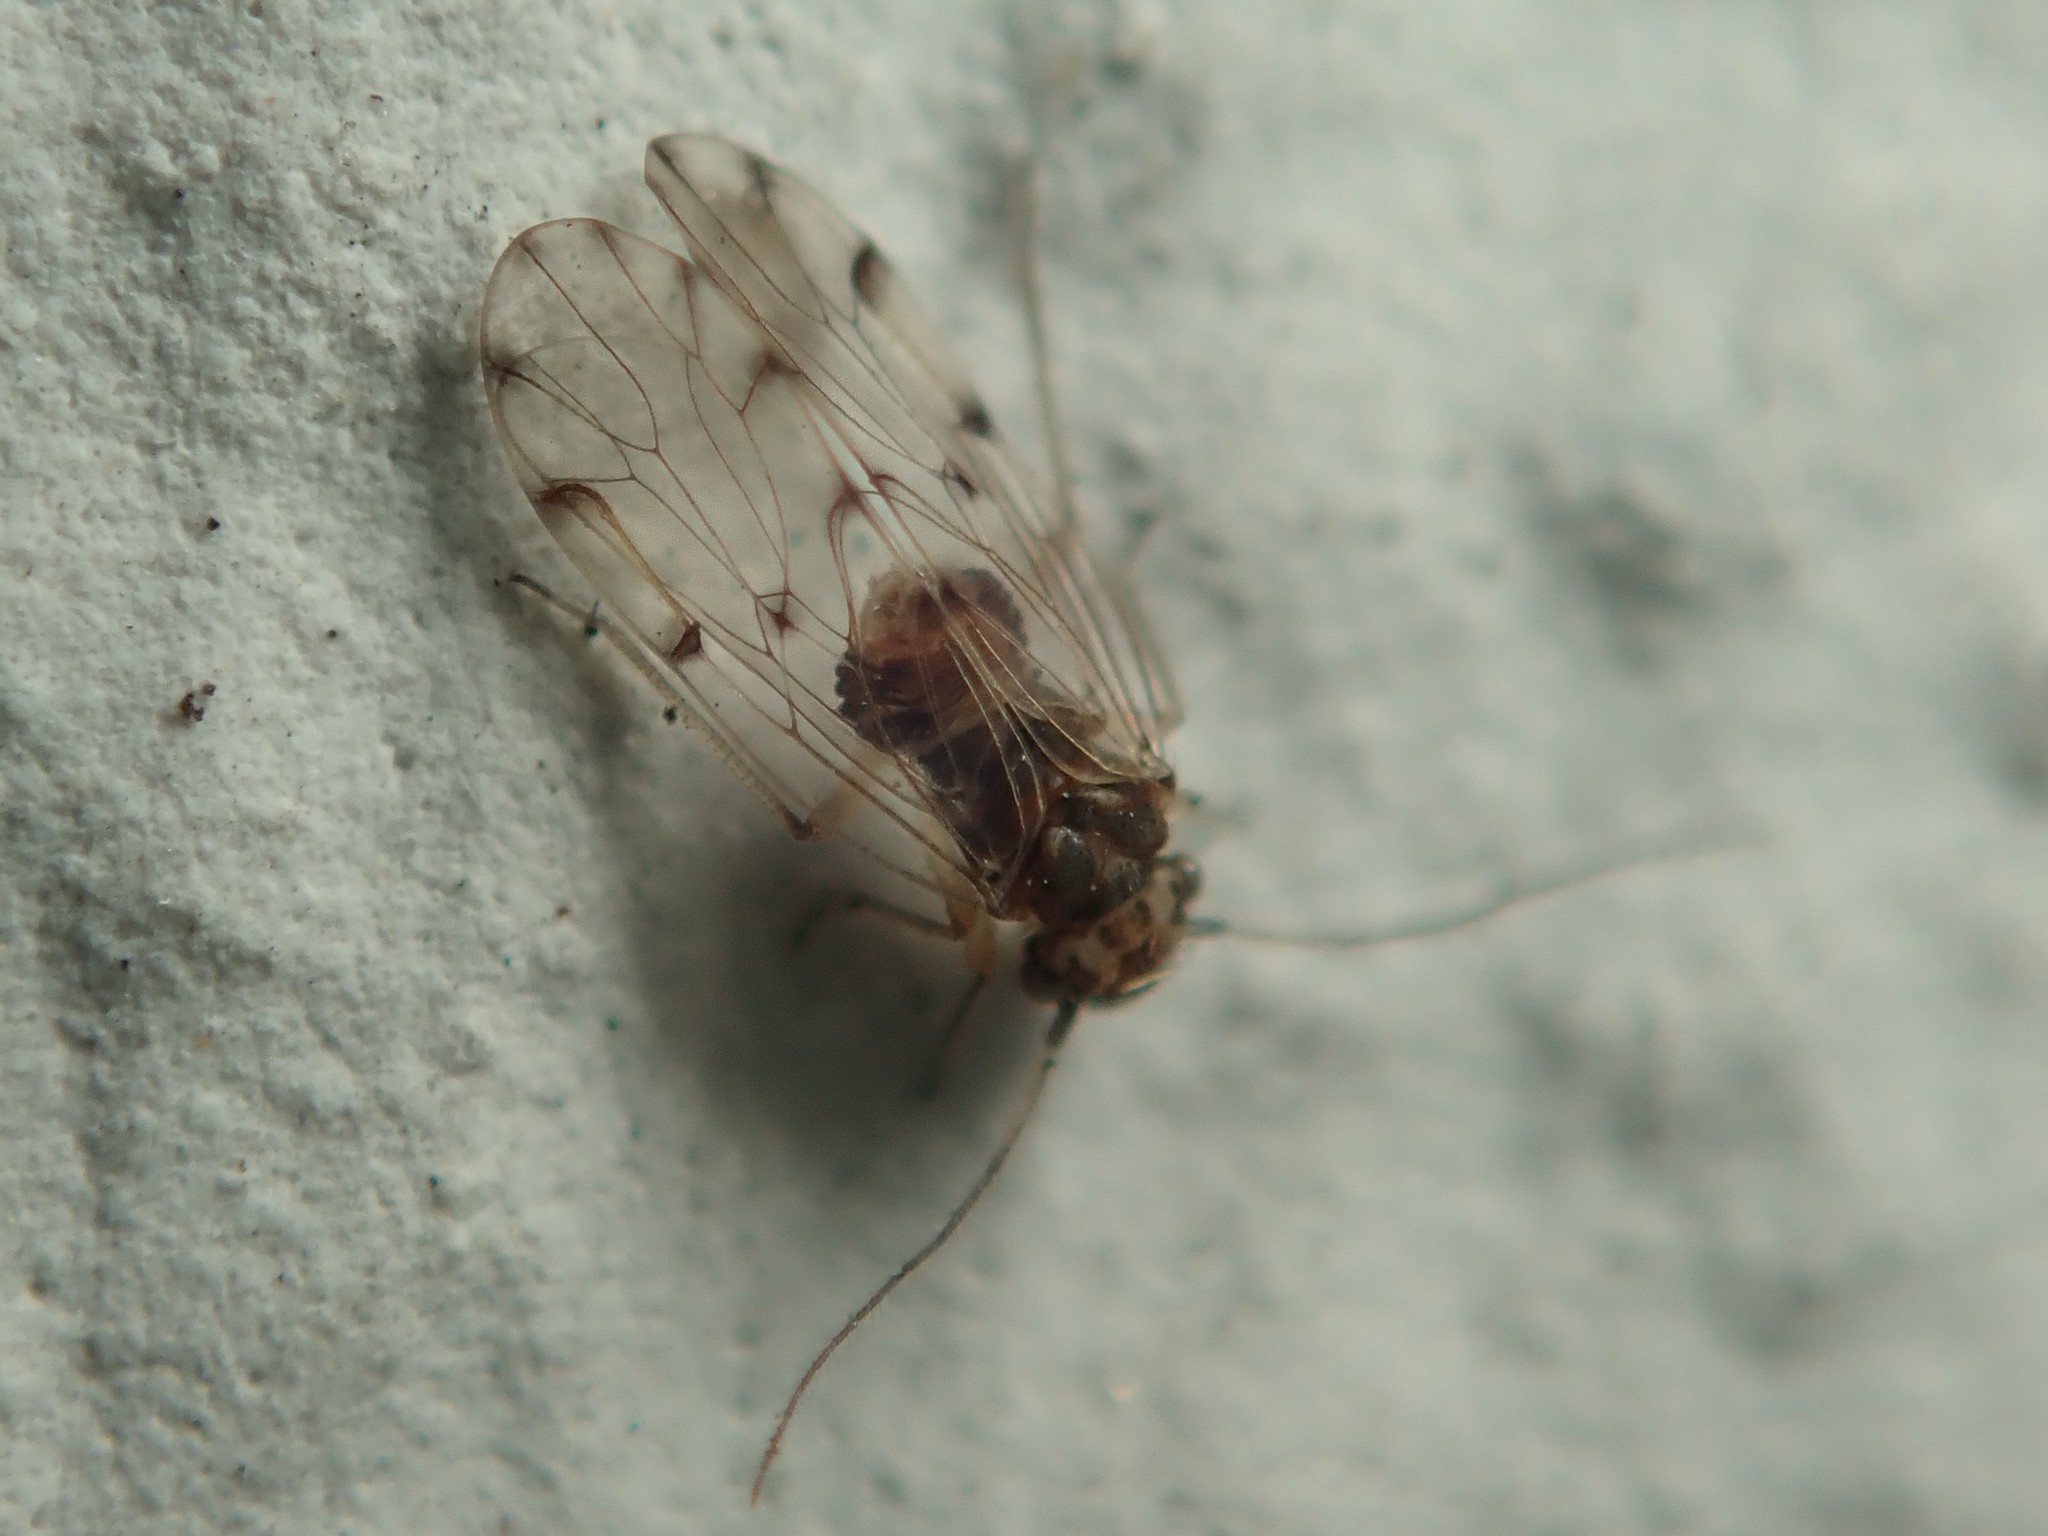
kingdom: Animalia
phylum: Arthropoda
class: Insecta
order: Psocodea
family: Ectopsocidae
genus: Ectopsocus
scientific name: Ectopsocus petersi
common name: Medium-sized bark louse
